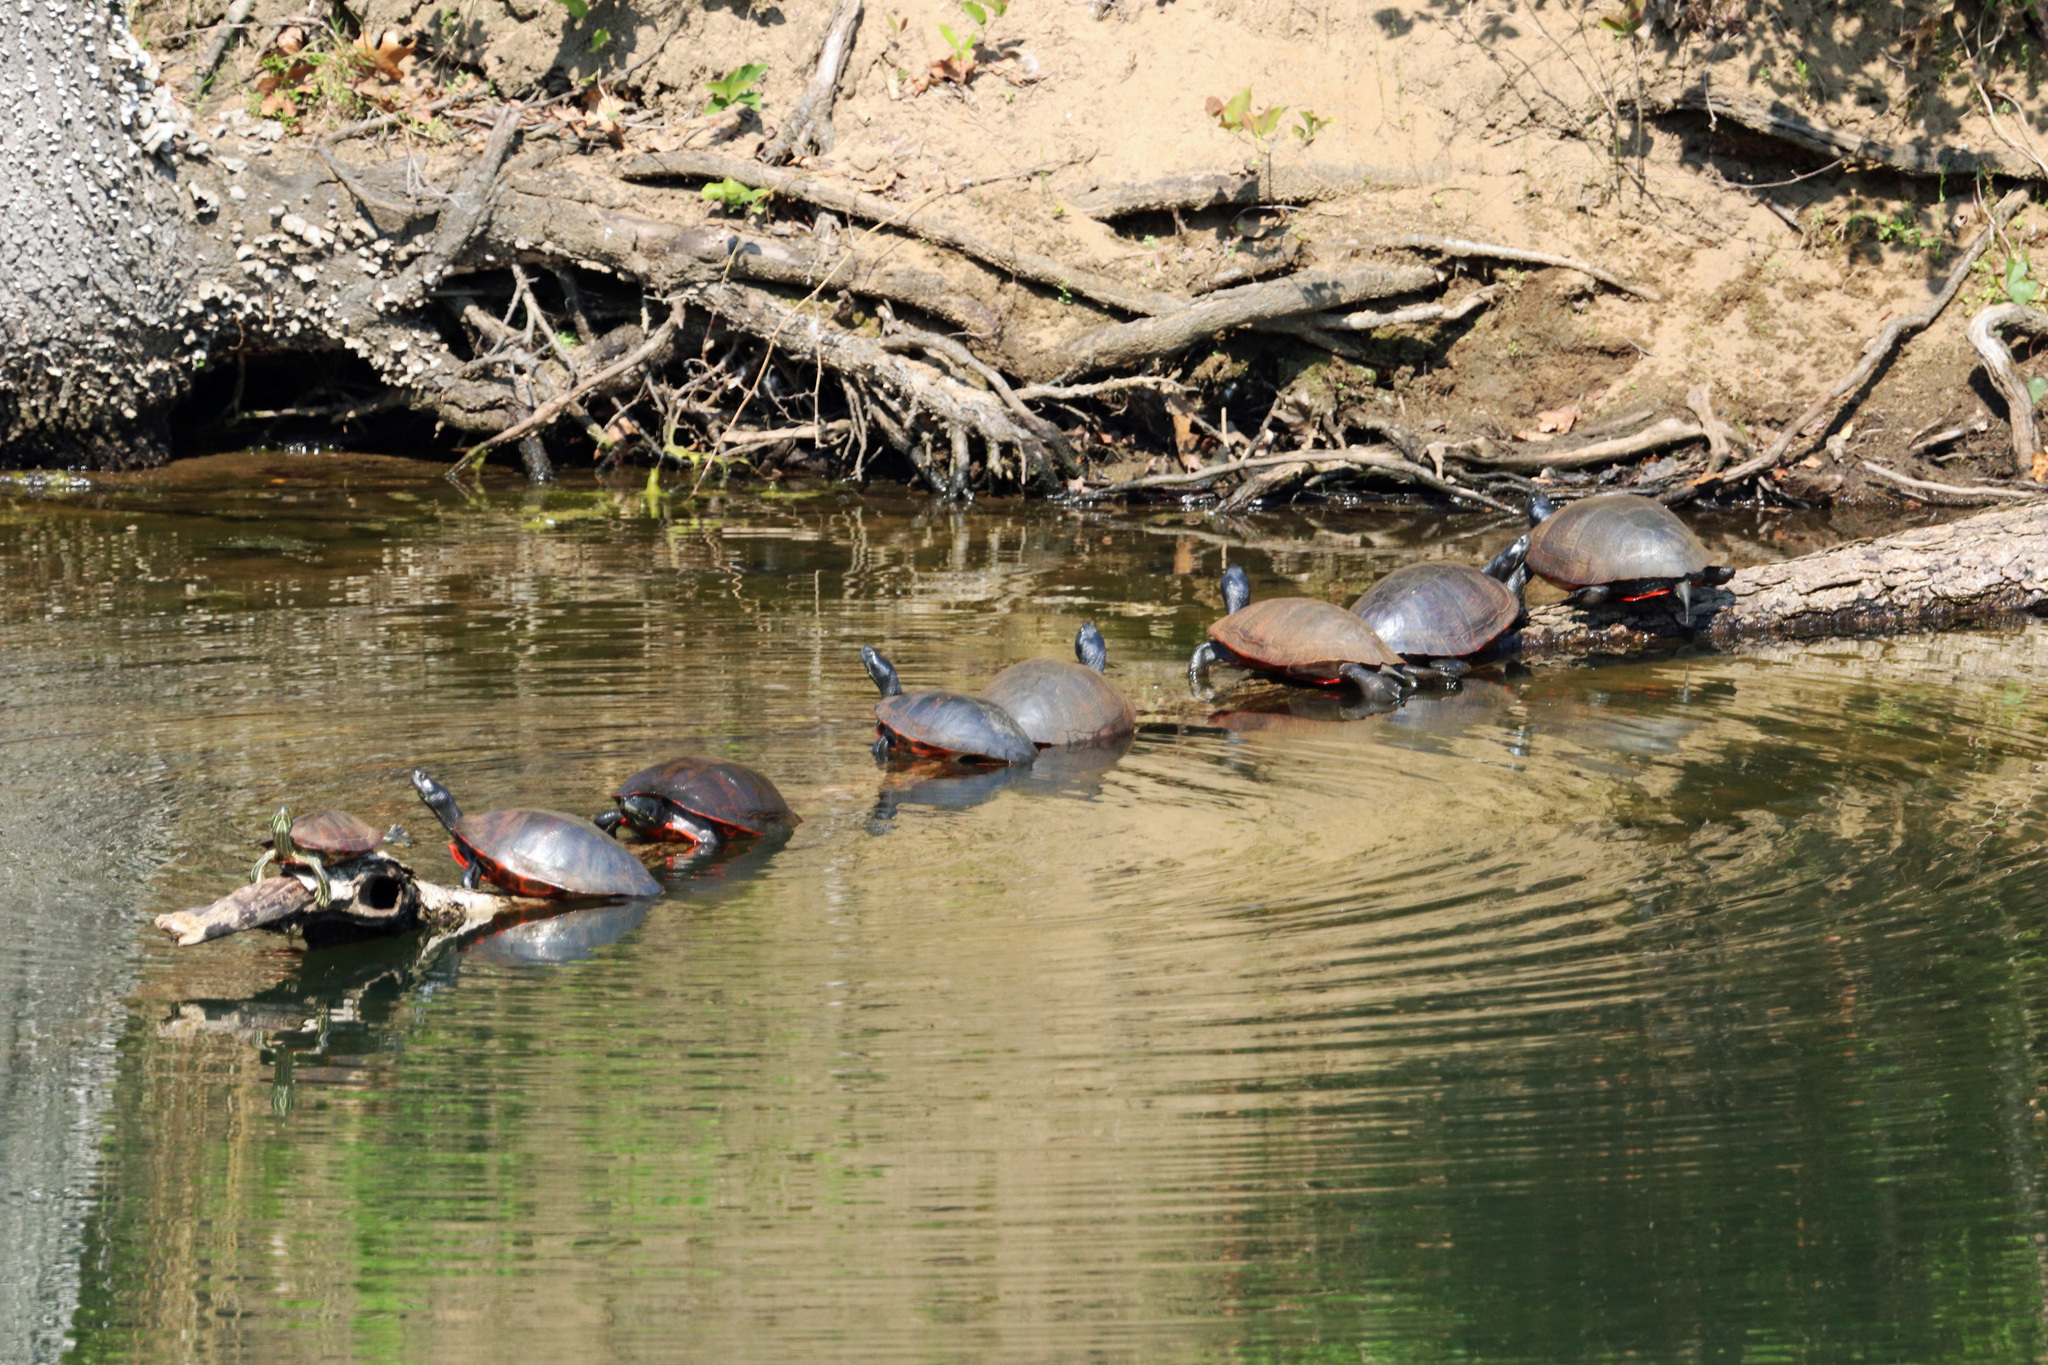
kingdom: Animalia
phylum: Chordata
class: Testudines
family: Emydidae
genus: Trachemys
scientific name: Trachemys scripta
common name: Slider
